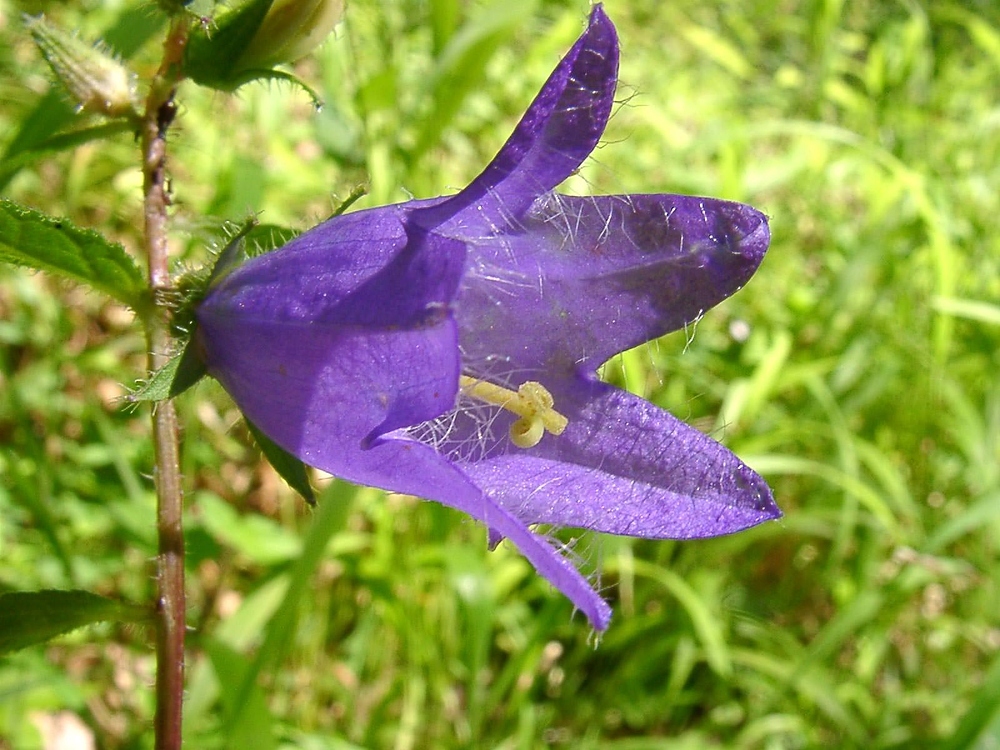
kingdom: Plantae
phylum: Tracheophyta
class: Magnoliopsida
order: Asterales
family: Campanulaceae
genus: Campanula
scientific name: Campanula trachelium
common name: Nettle-leaved bellflower
